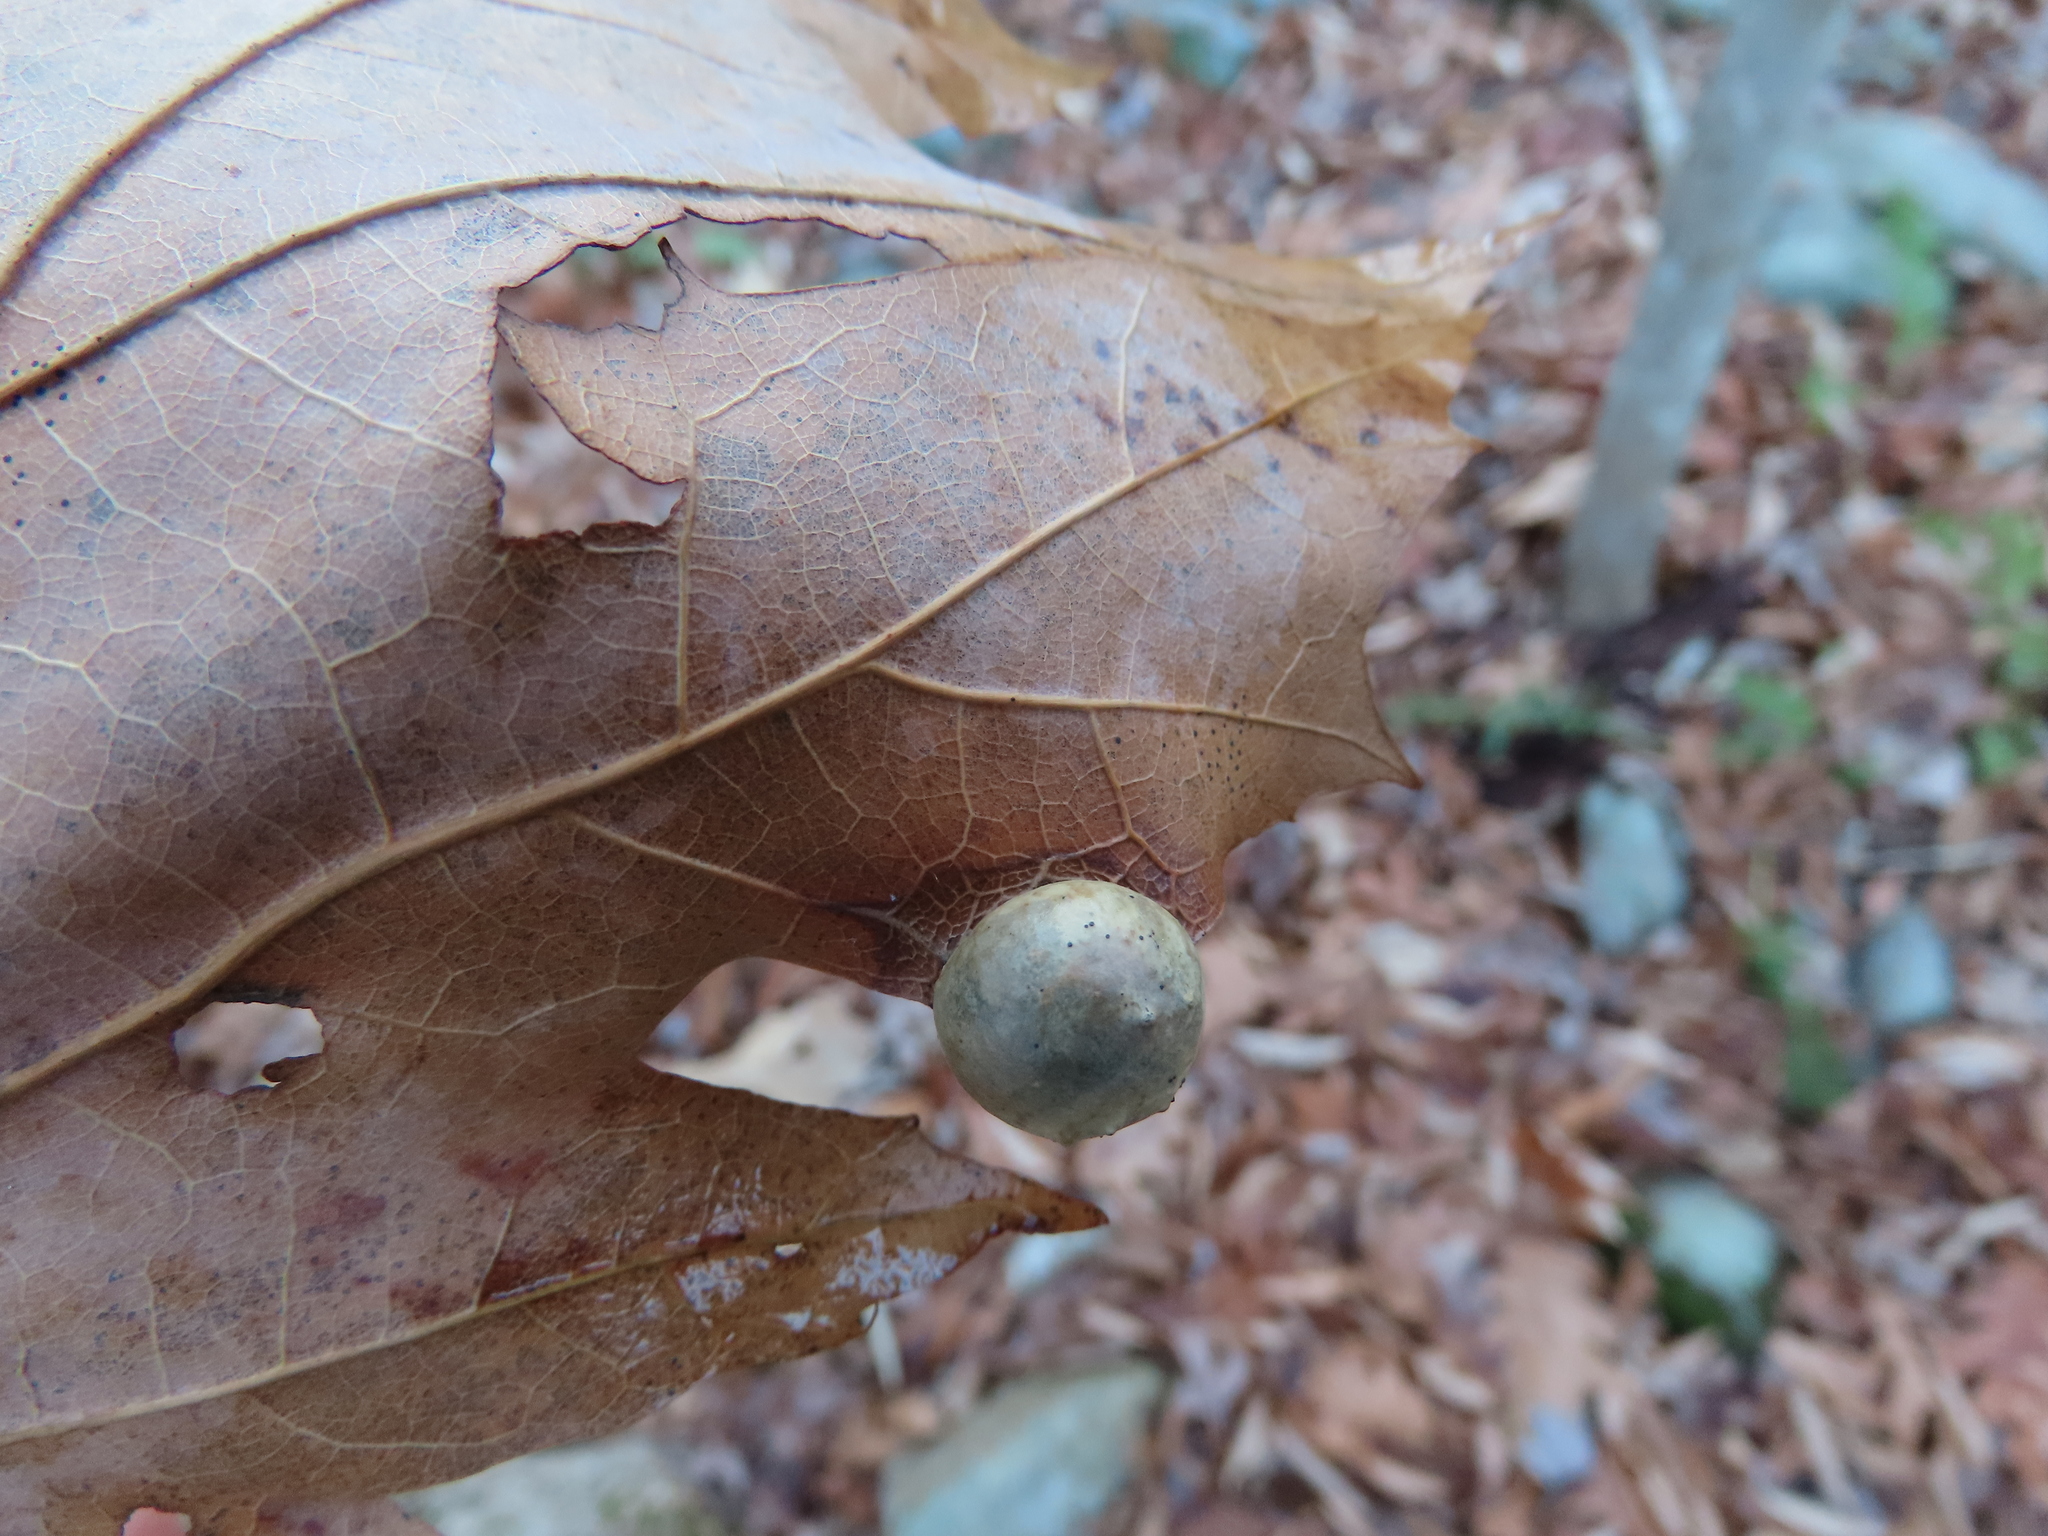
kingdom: Animalia
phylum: Arthropoda
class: Insecta
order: Hymenoptera
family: Cynipidae
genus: Amphibolips
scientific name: Amphibolips
